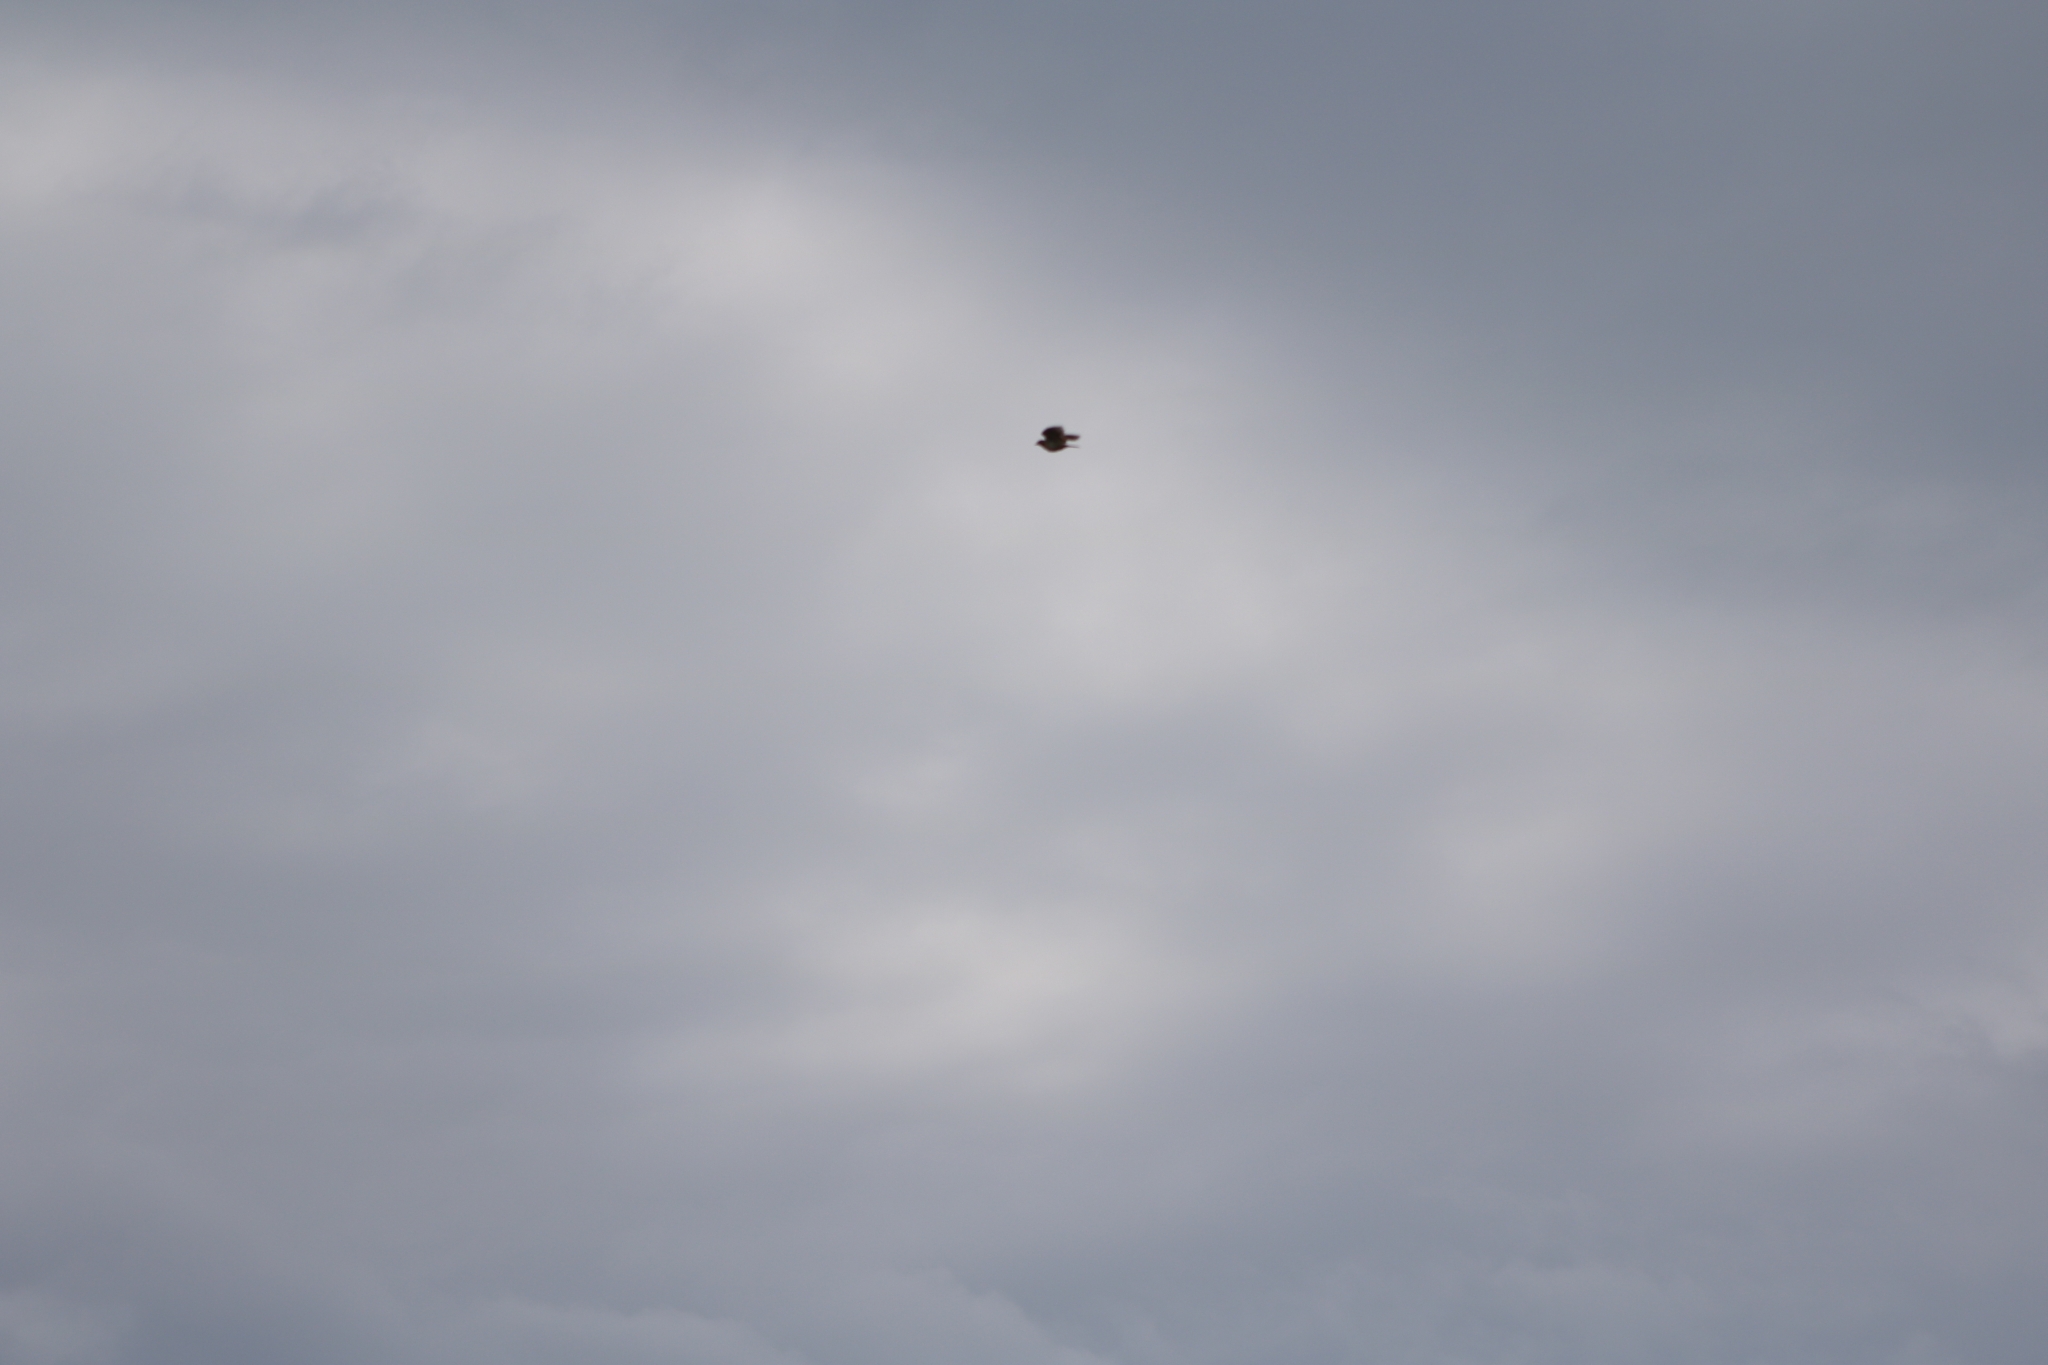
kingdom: Animalia
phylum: Chordata
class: Aves
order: Passeriformes
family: Alaudidae
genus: Alauda
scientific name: Alauda arvensis
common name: Eurasian skylark
